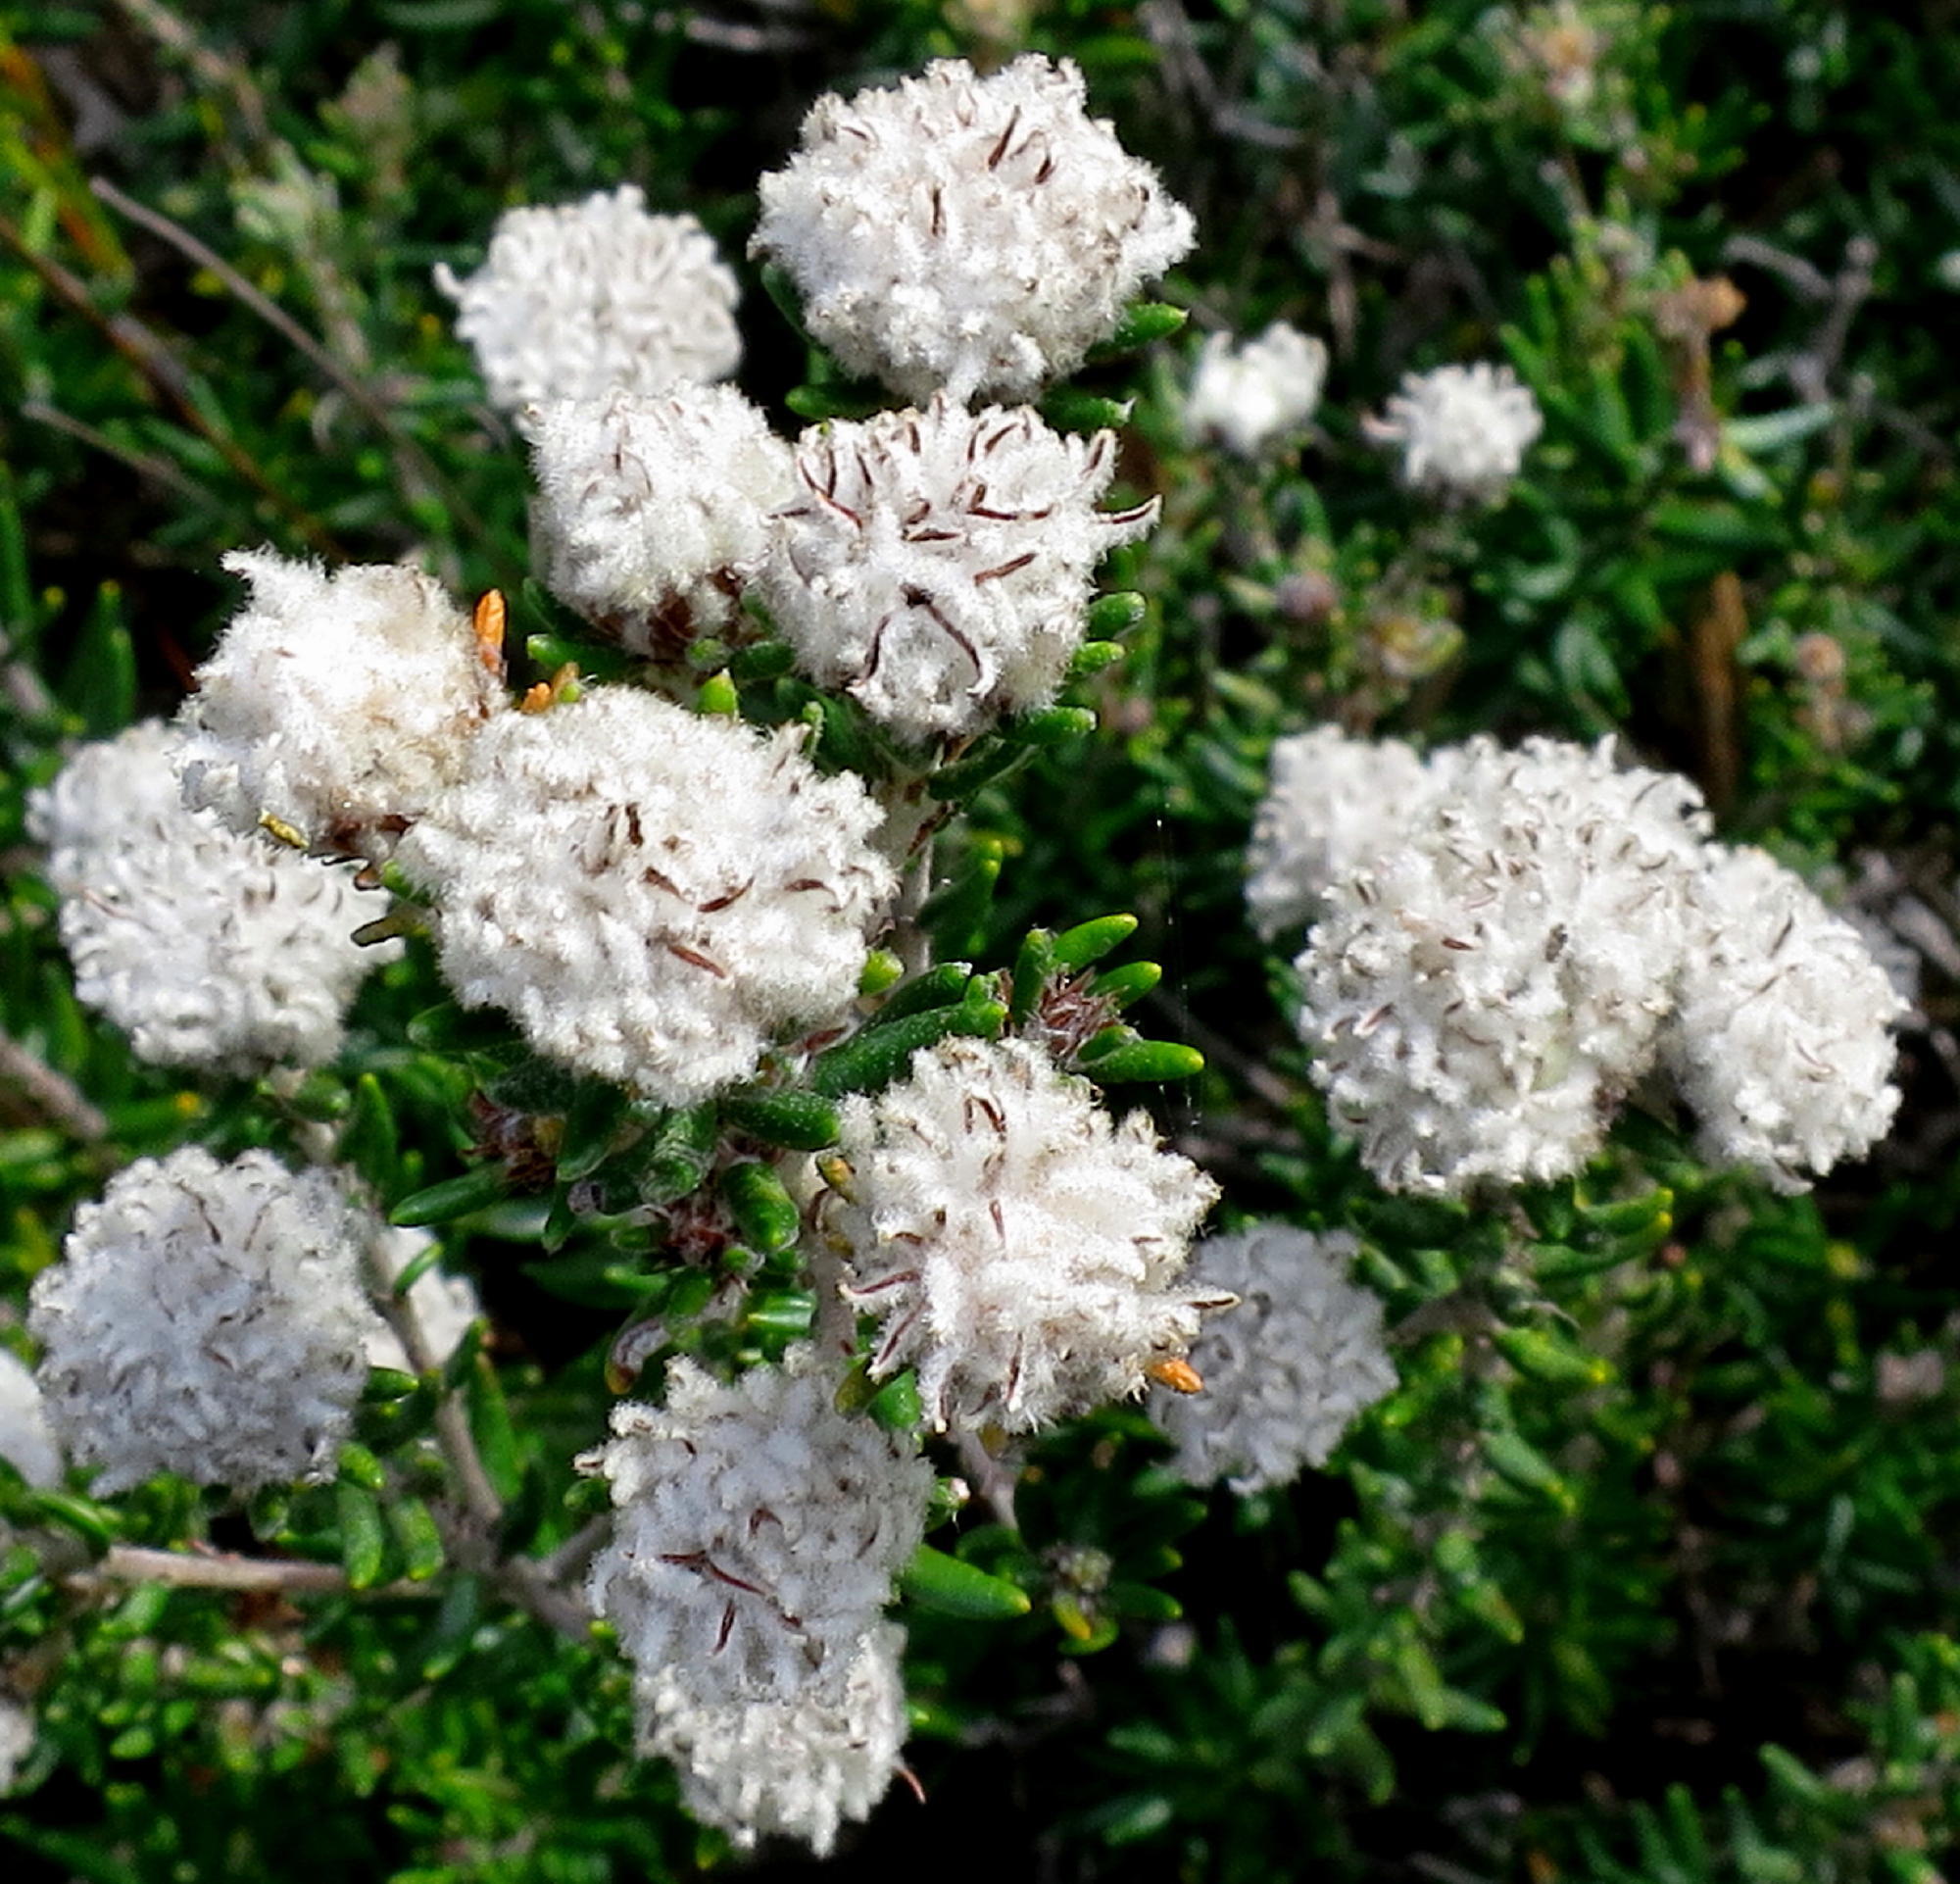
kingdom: Plantae
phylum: Tracheophyta
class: Magnoliopsida
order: Rosales
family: Rhamnaceae
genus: Trichocephalus
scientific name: Trichocephalus stipularis
